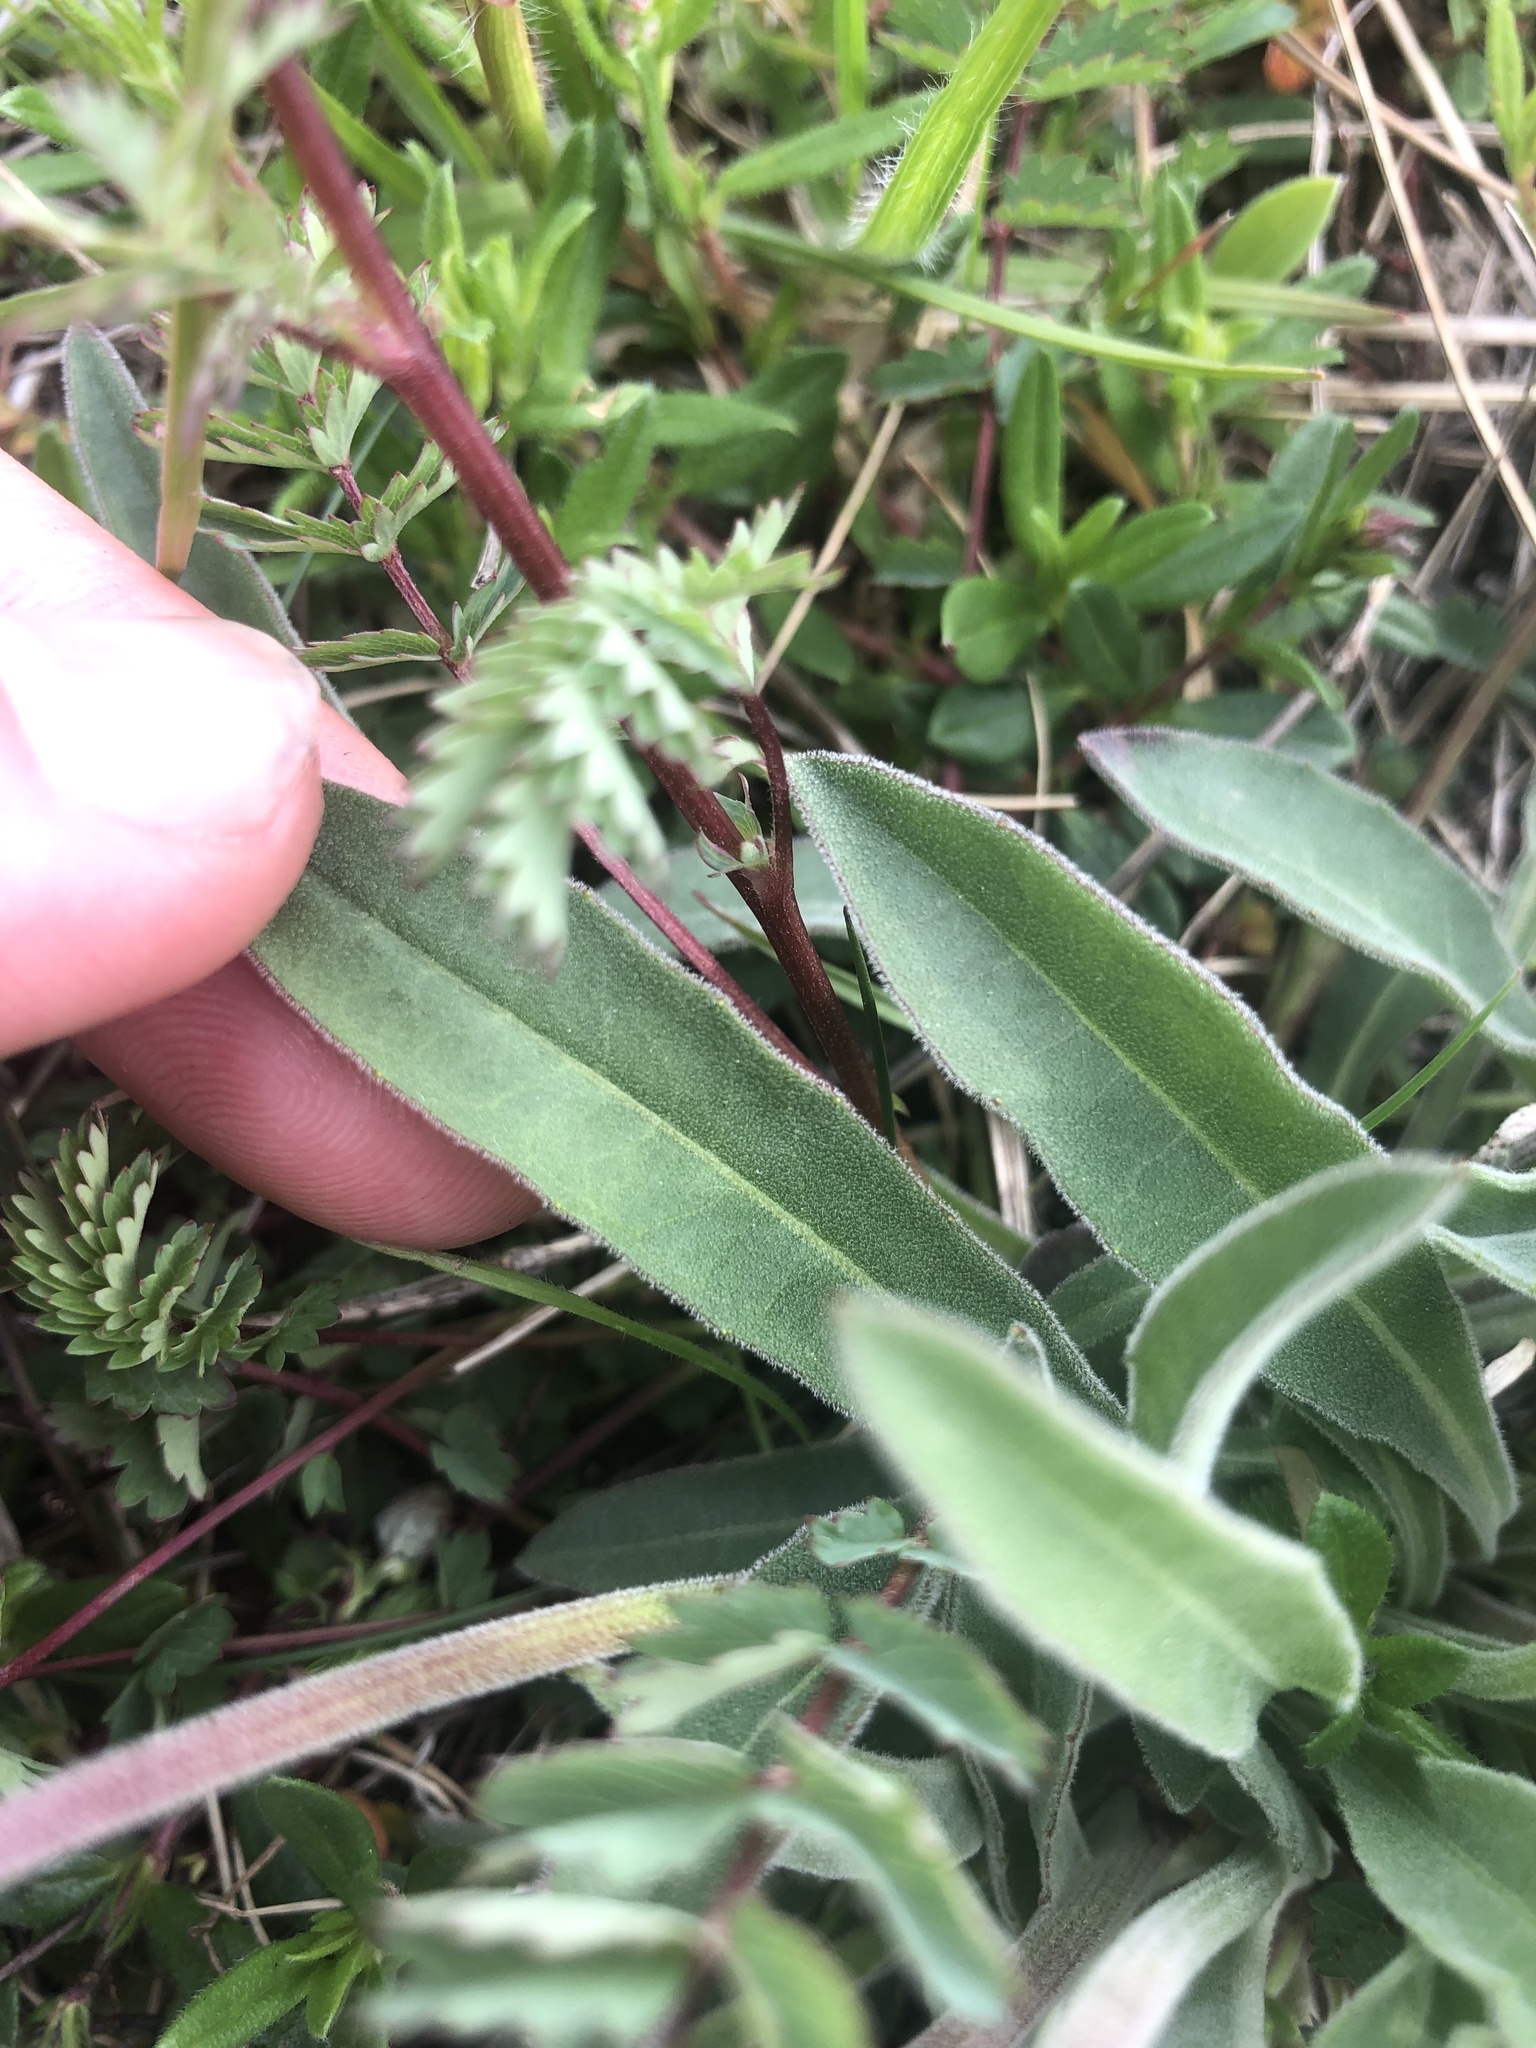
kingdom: Plantae
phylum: Tracheophyta
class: Magnoliopsida
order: Asterales
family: Asteraceae
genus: Leontodon
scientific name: Leontodon incanus
